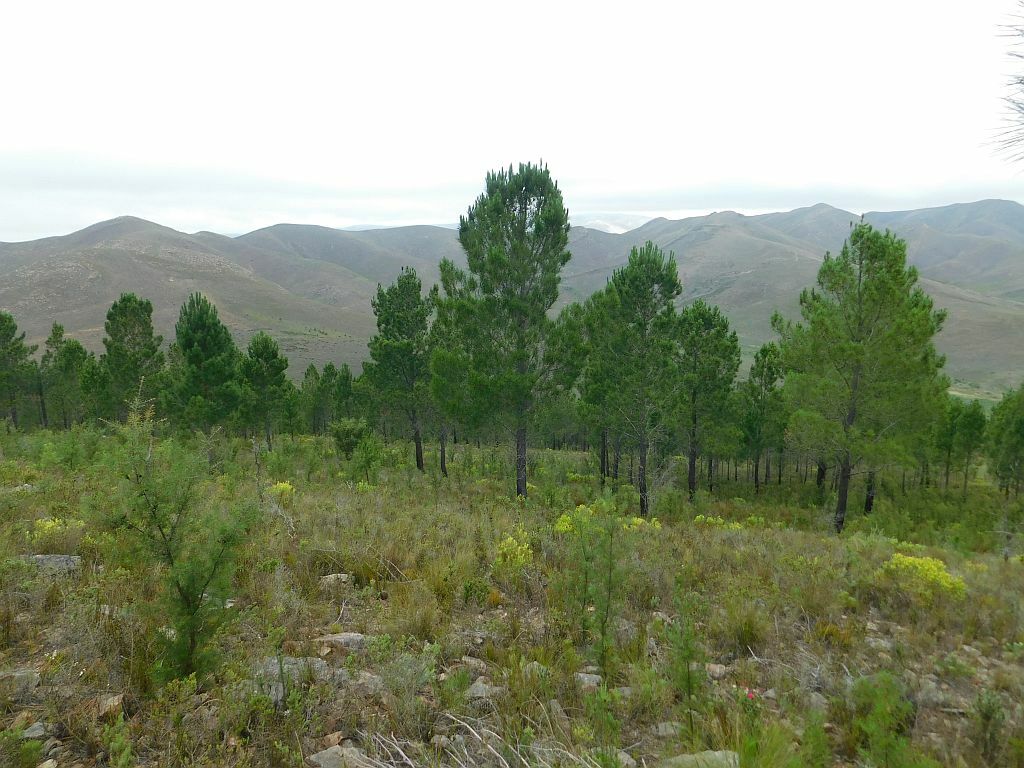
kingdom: Plantae
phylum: Tracheophyta
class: Pinopsida
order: Pinales
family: Pinaceae
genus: Pinus
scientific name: Pinus pinaster
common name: Maritime pine
